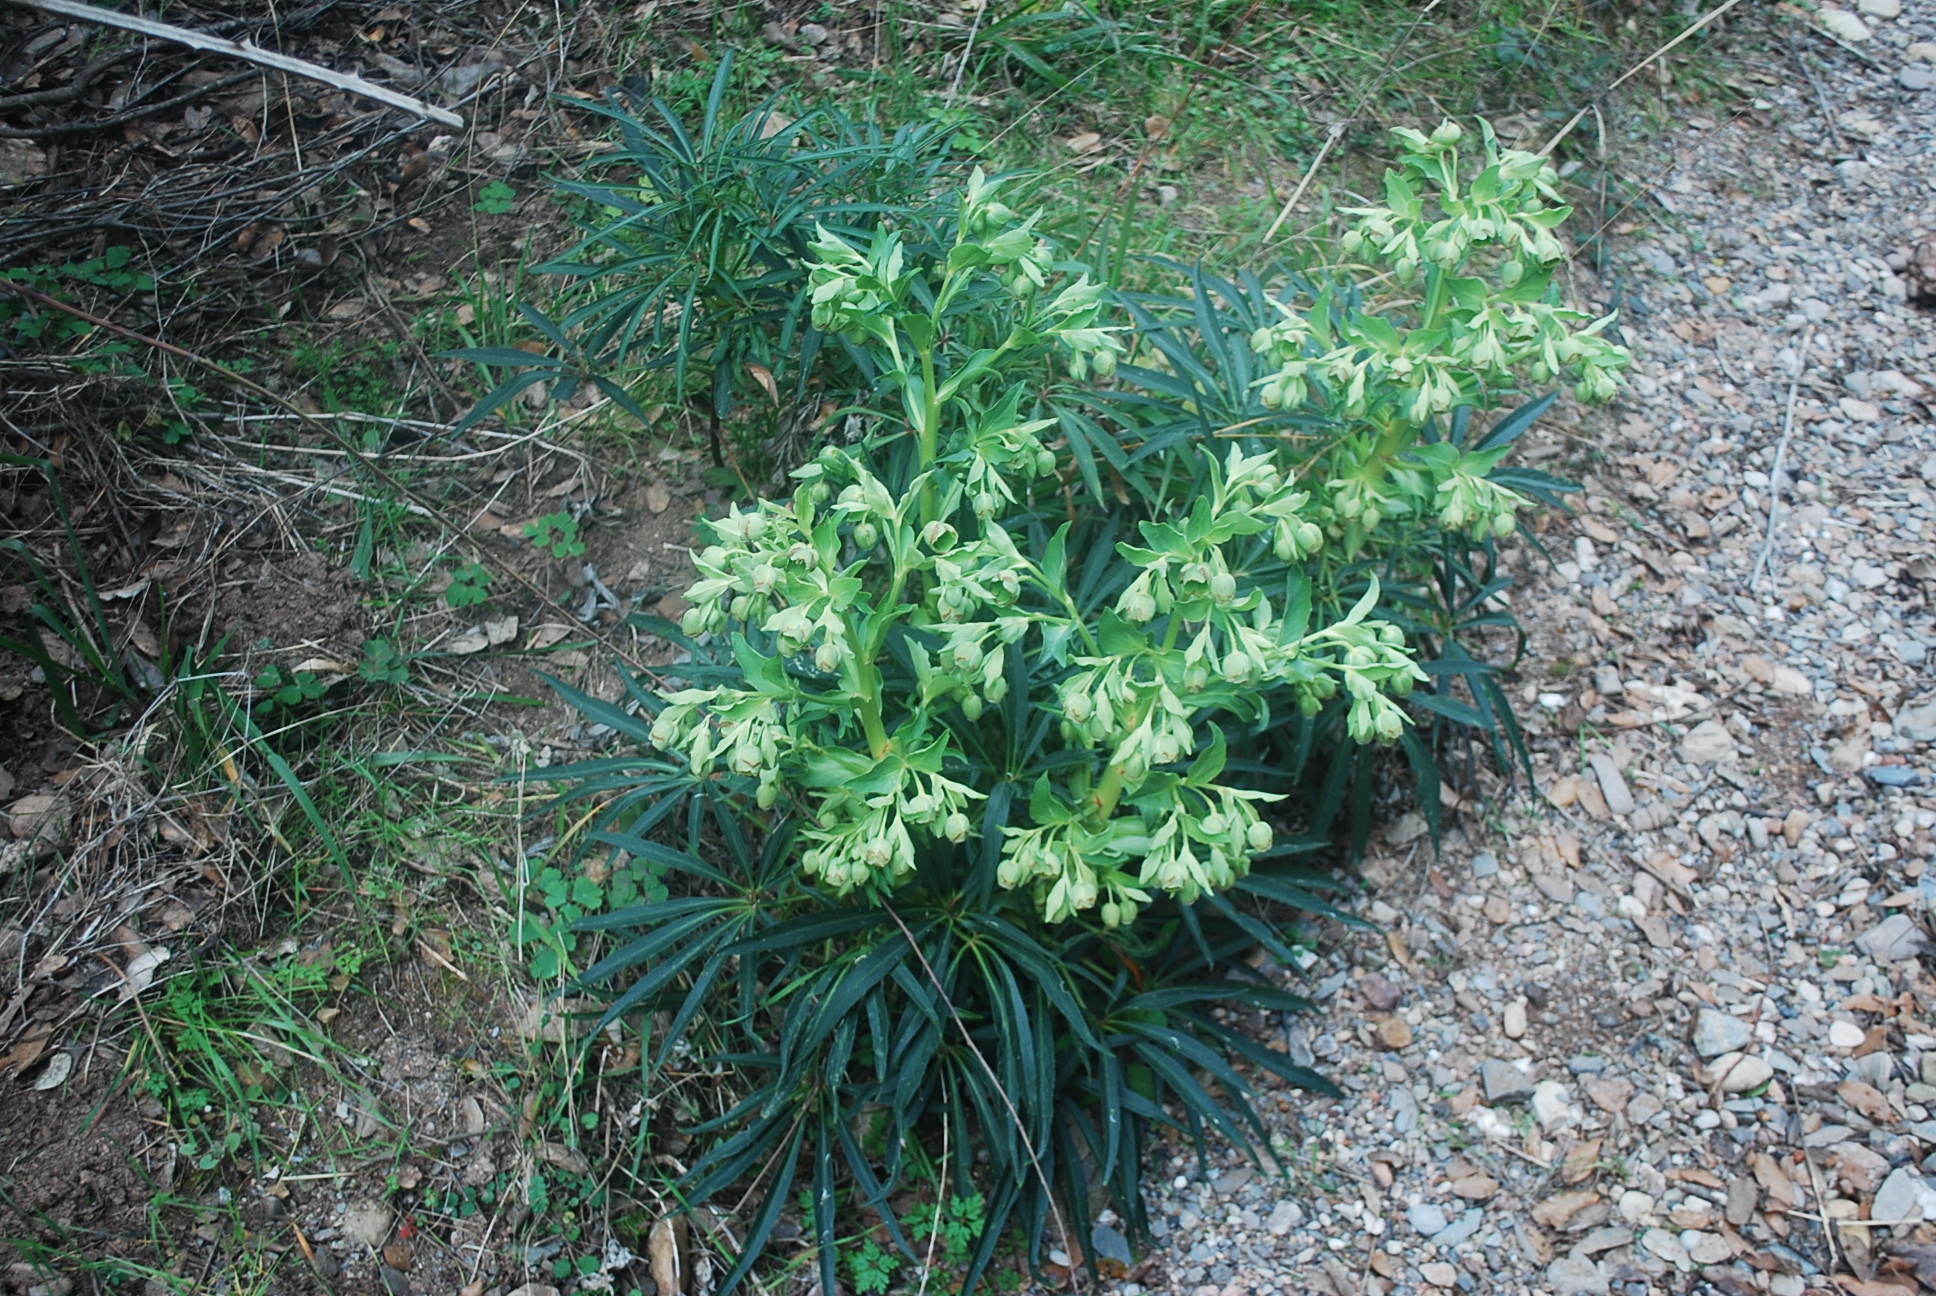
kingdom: Plantae
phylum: Tracheophyta
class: Magnoliopsida
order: Ranunculales
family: Ranunculaceae
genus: Helleborus
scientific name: Helleborus foetidus
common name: Stinking hellebore
